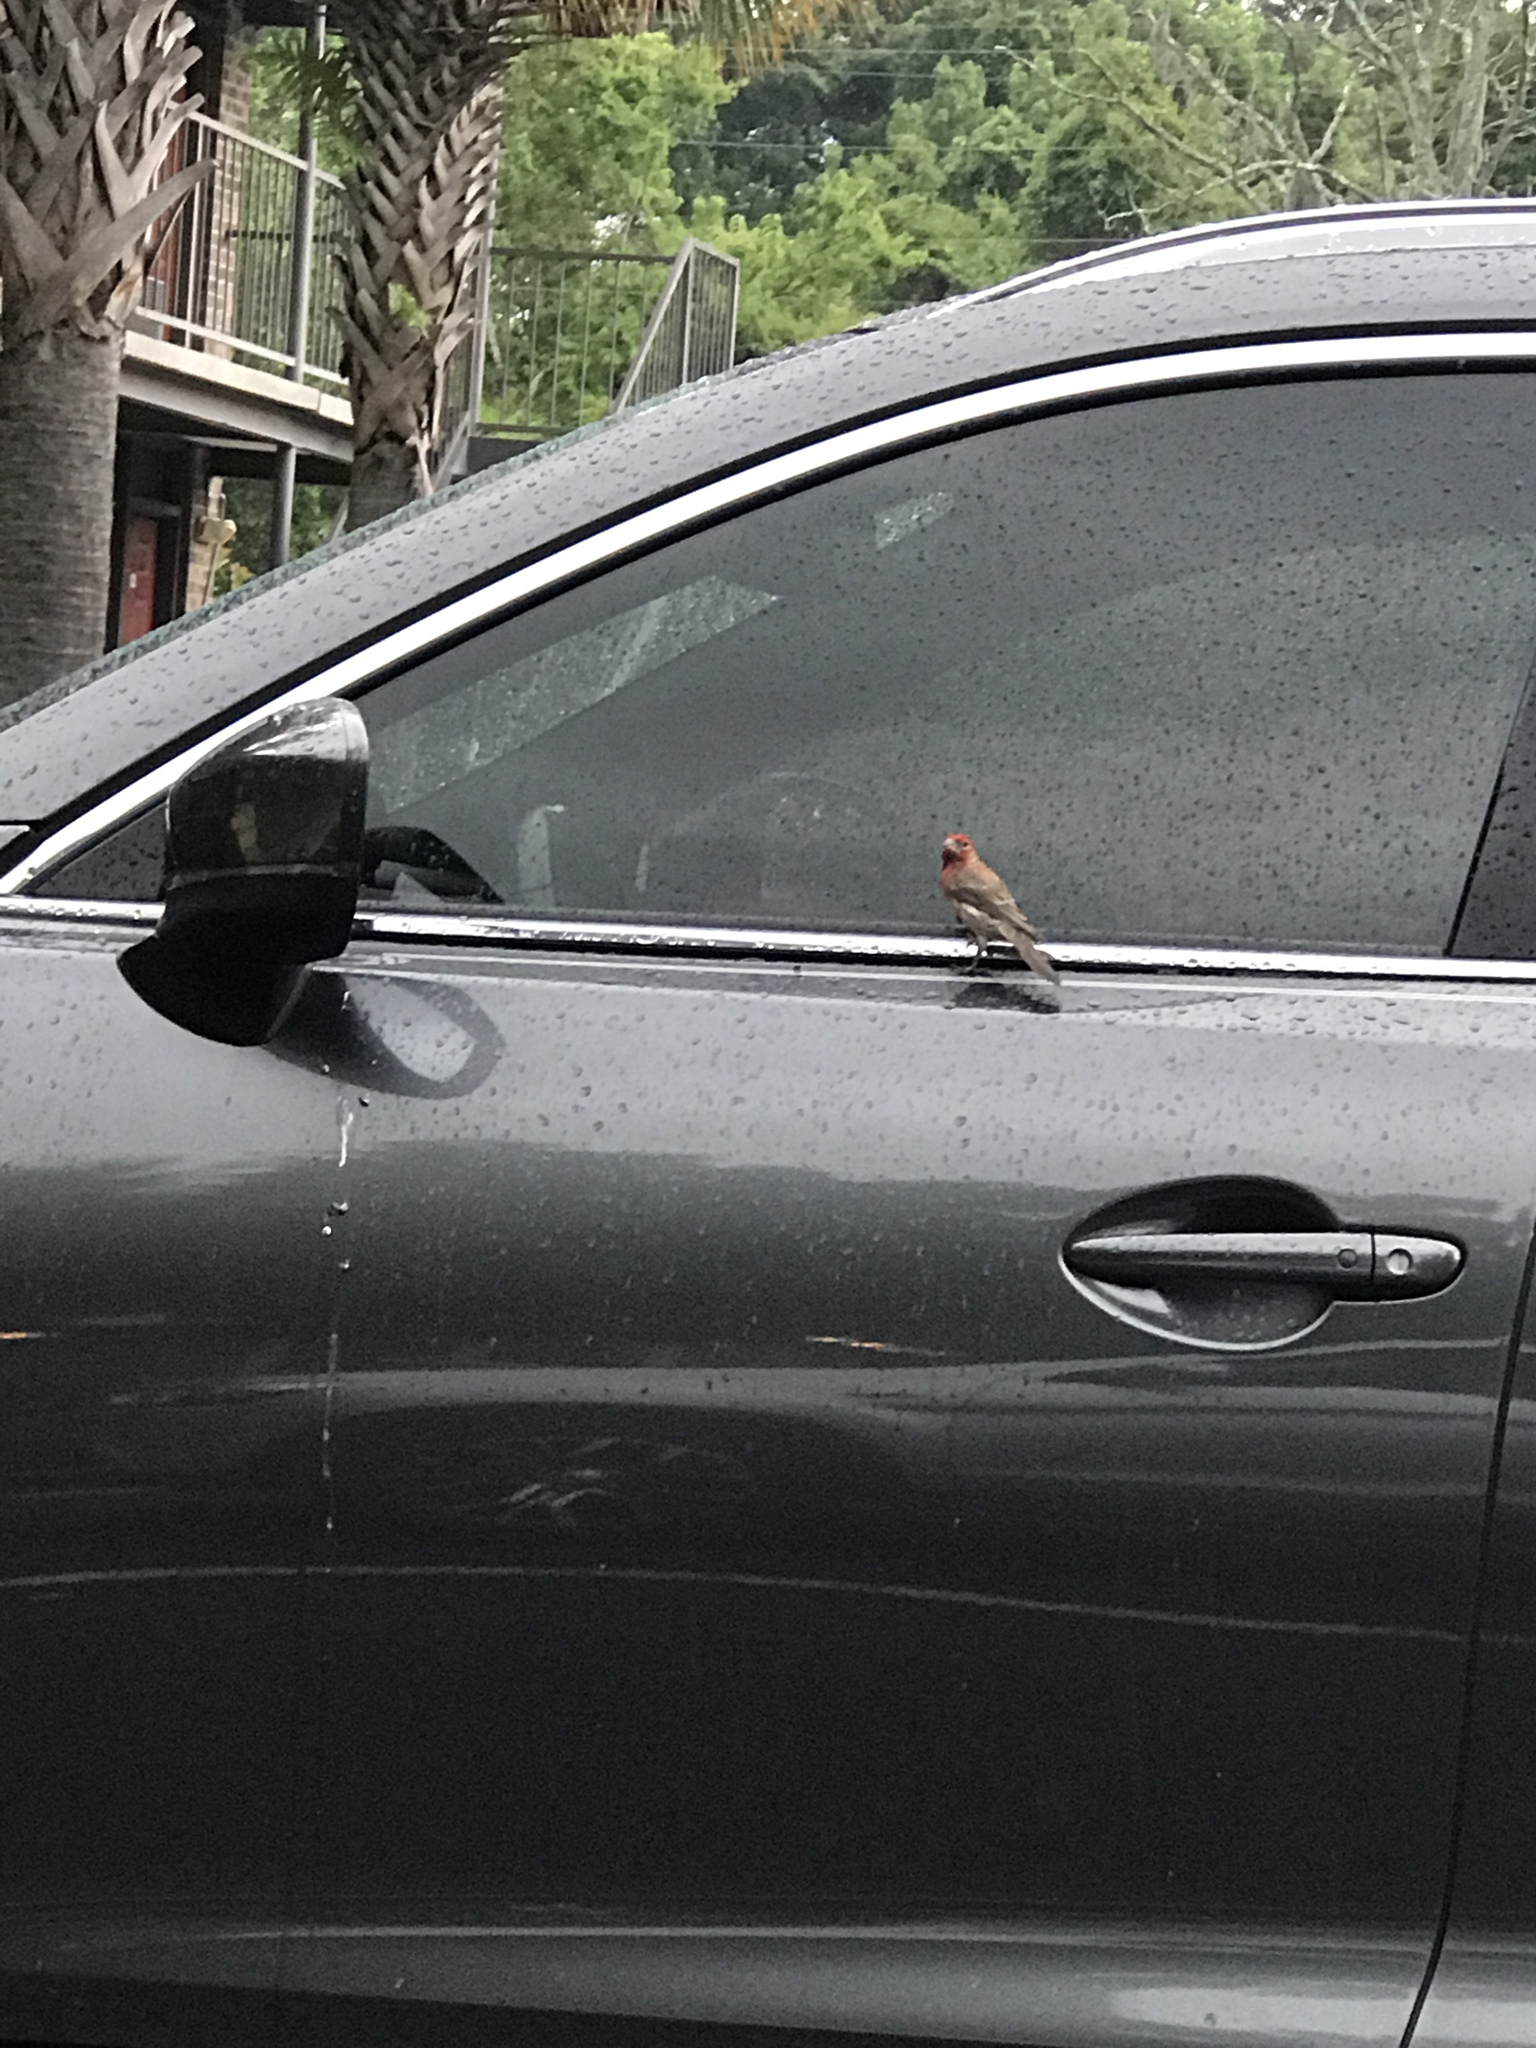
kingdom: Animalia
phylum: Chordata
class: Aves
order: Passeriformes
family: Fringillidae
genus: Haemorhous
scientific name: Haemorhous mexicanus
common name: House finch
